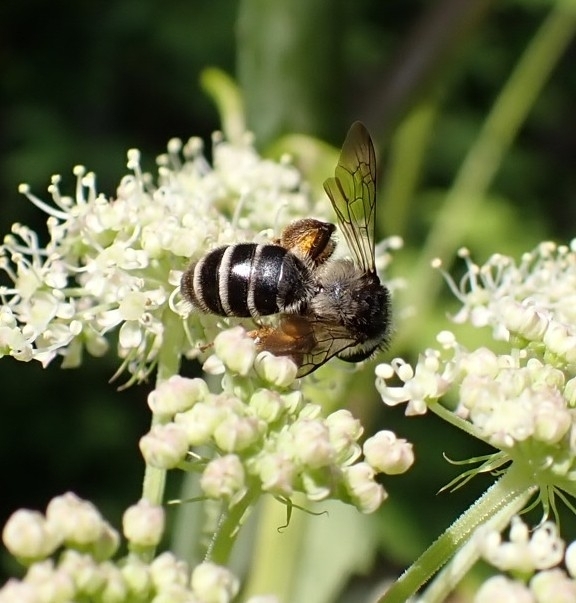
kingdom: Animalia
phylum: Arthropoda
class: Insecta
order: Hymenoptera
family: Andrenidae
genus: Andrena
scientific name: Andrena denticulata
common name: Grey-banded mining bee
